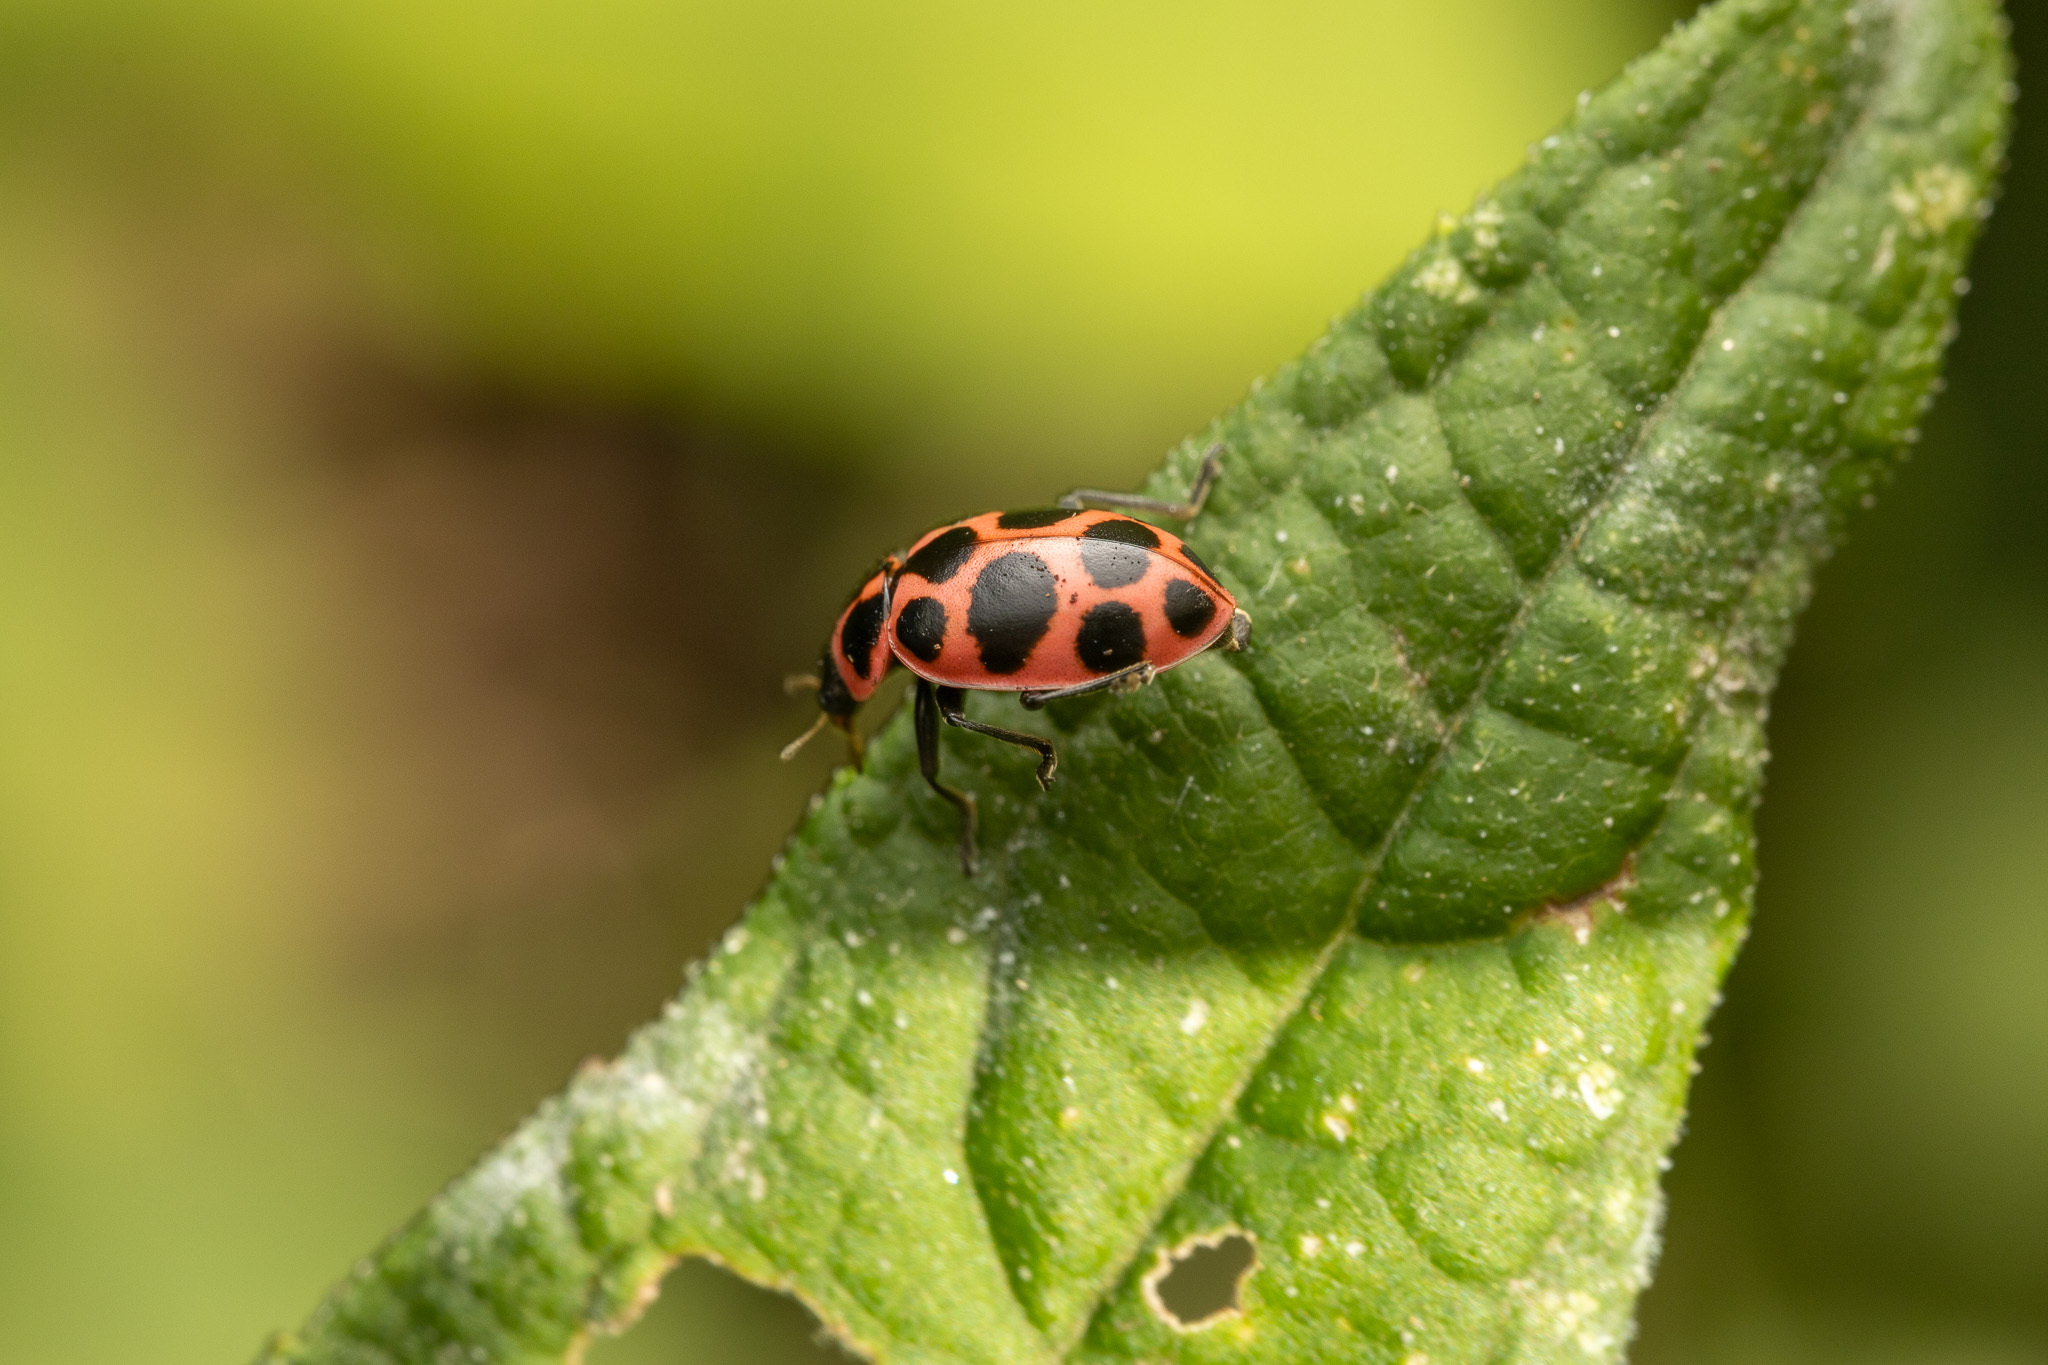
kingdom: Animalia
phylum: Arthropoda
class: Insecta
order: Coleoptera
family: Coccinellidae
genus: Coleomegilla
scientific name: Coleomegilla maculata
